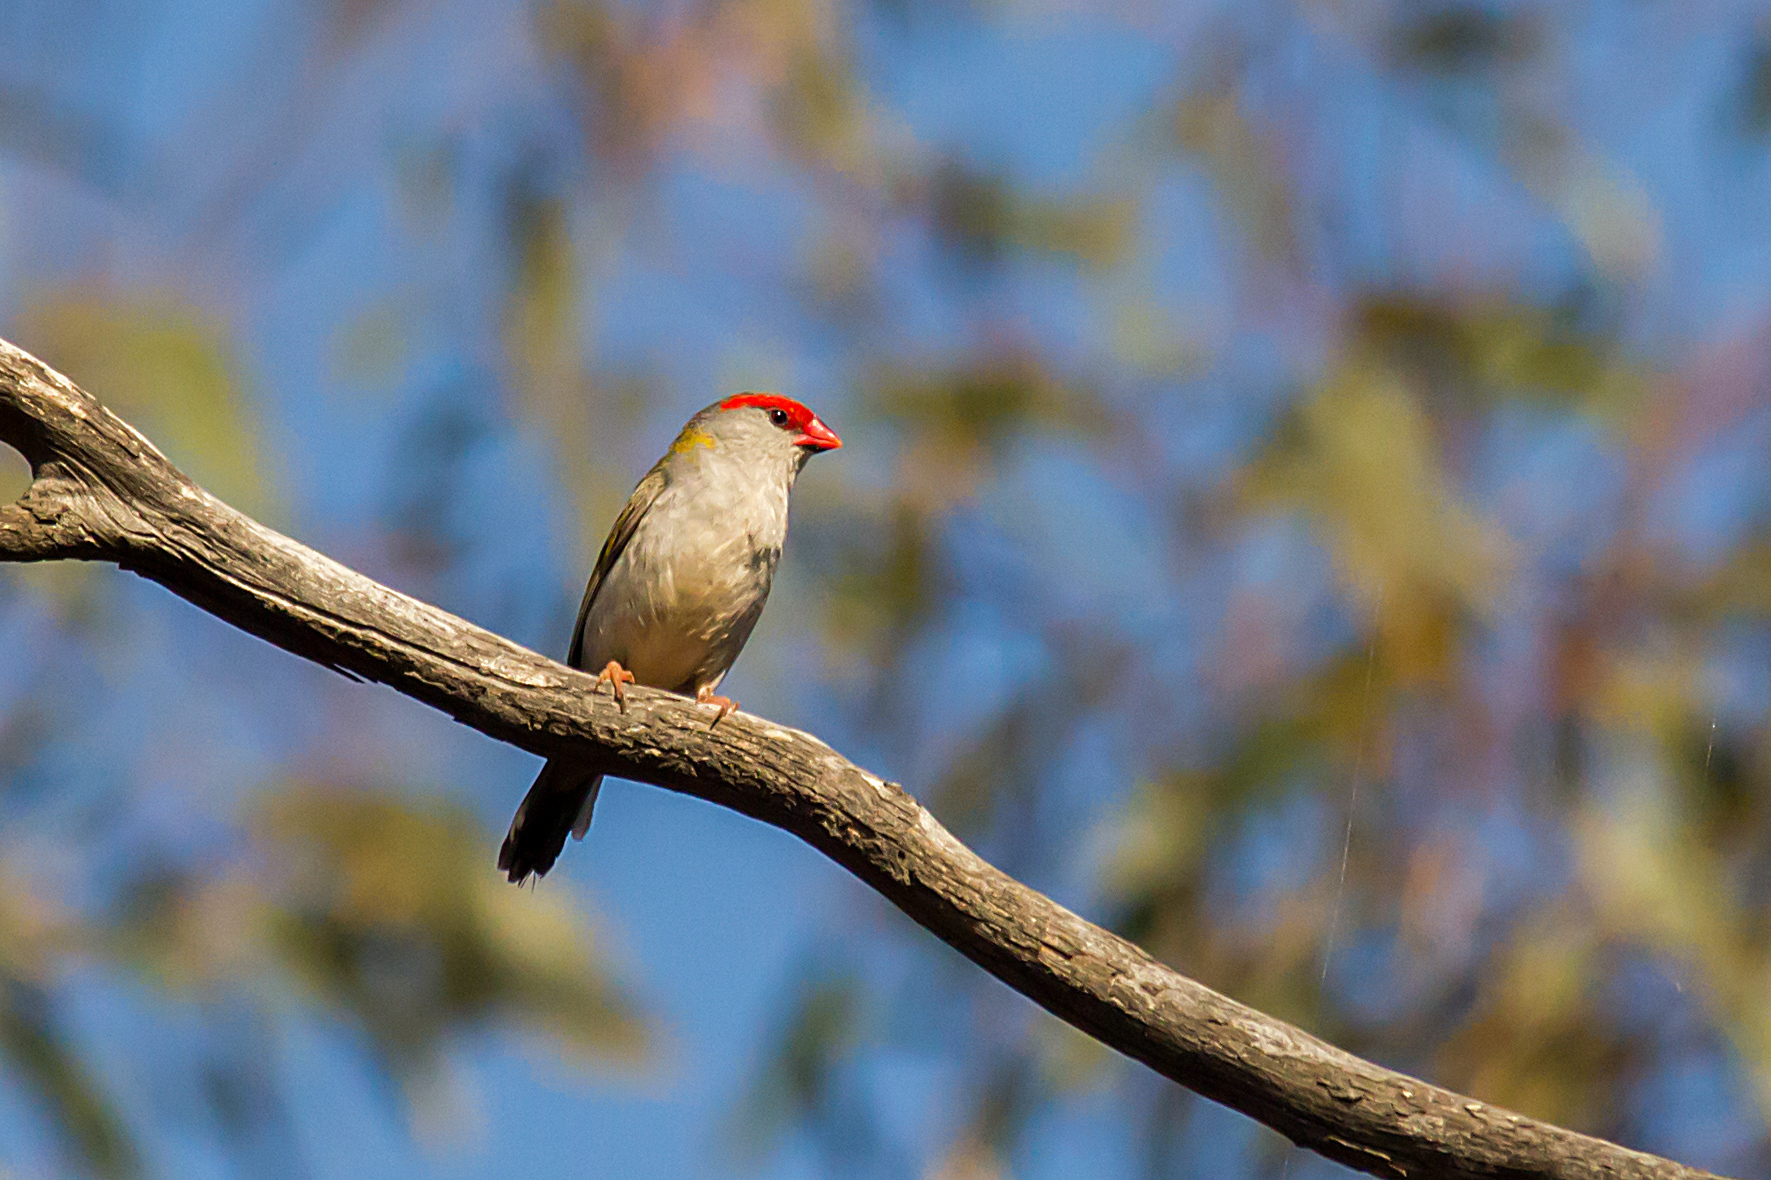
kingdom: Animalia
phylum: Chordata
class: Aves
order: Passeriformes
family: Estrildidae
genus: Neochmia
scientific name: Neochmia temporalis
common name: Red-browed finch
